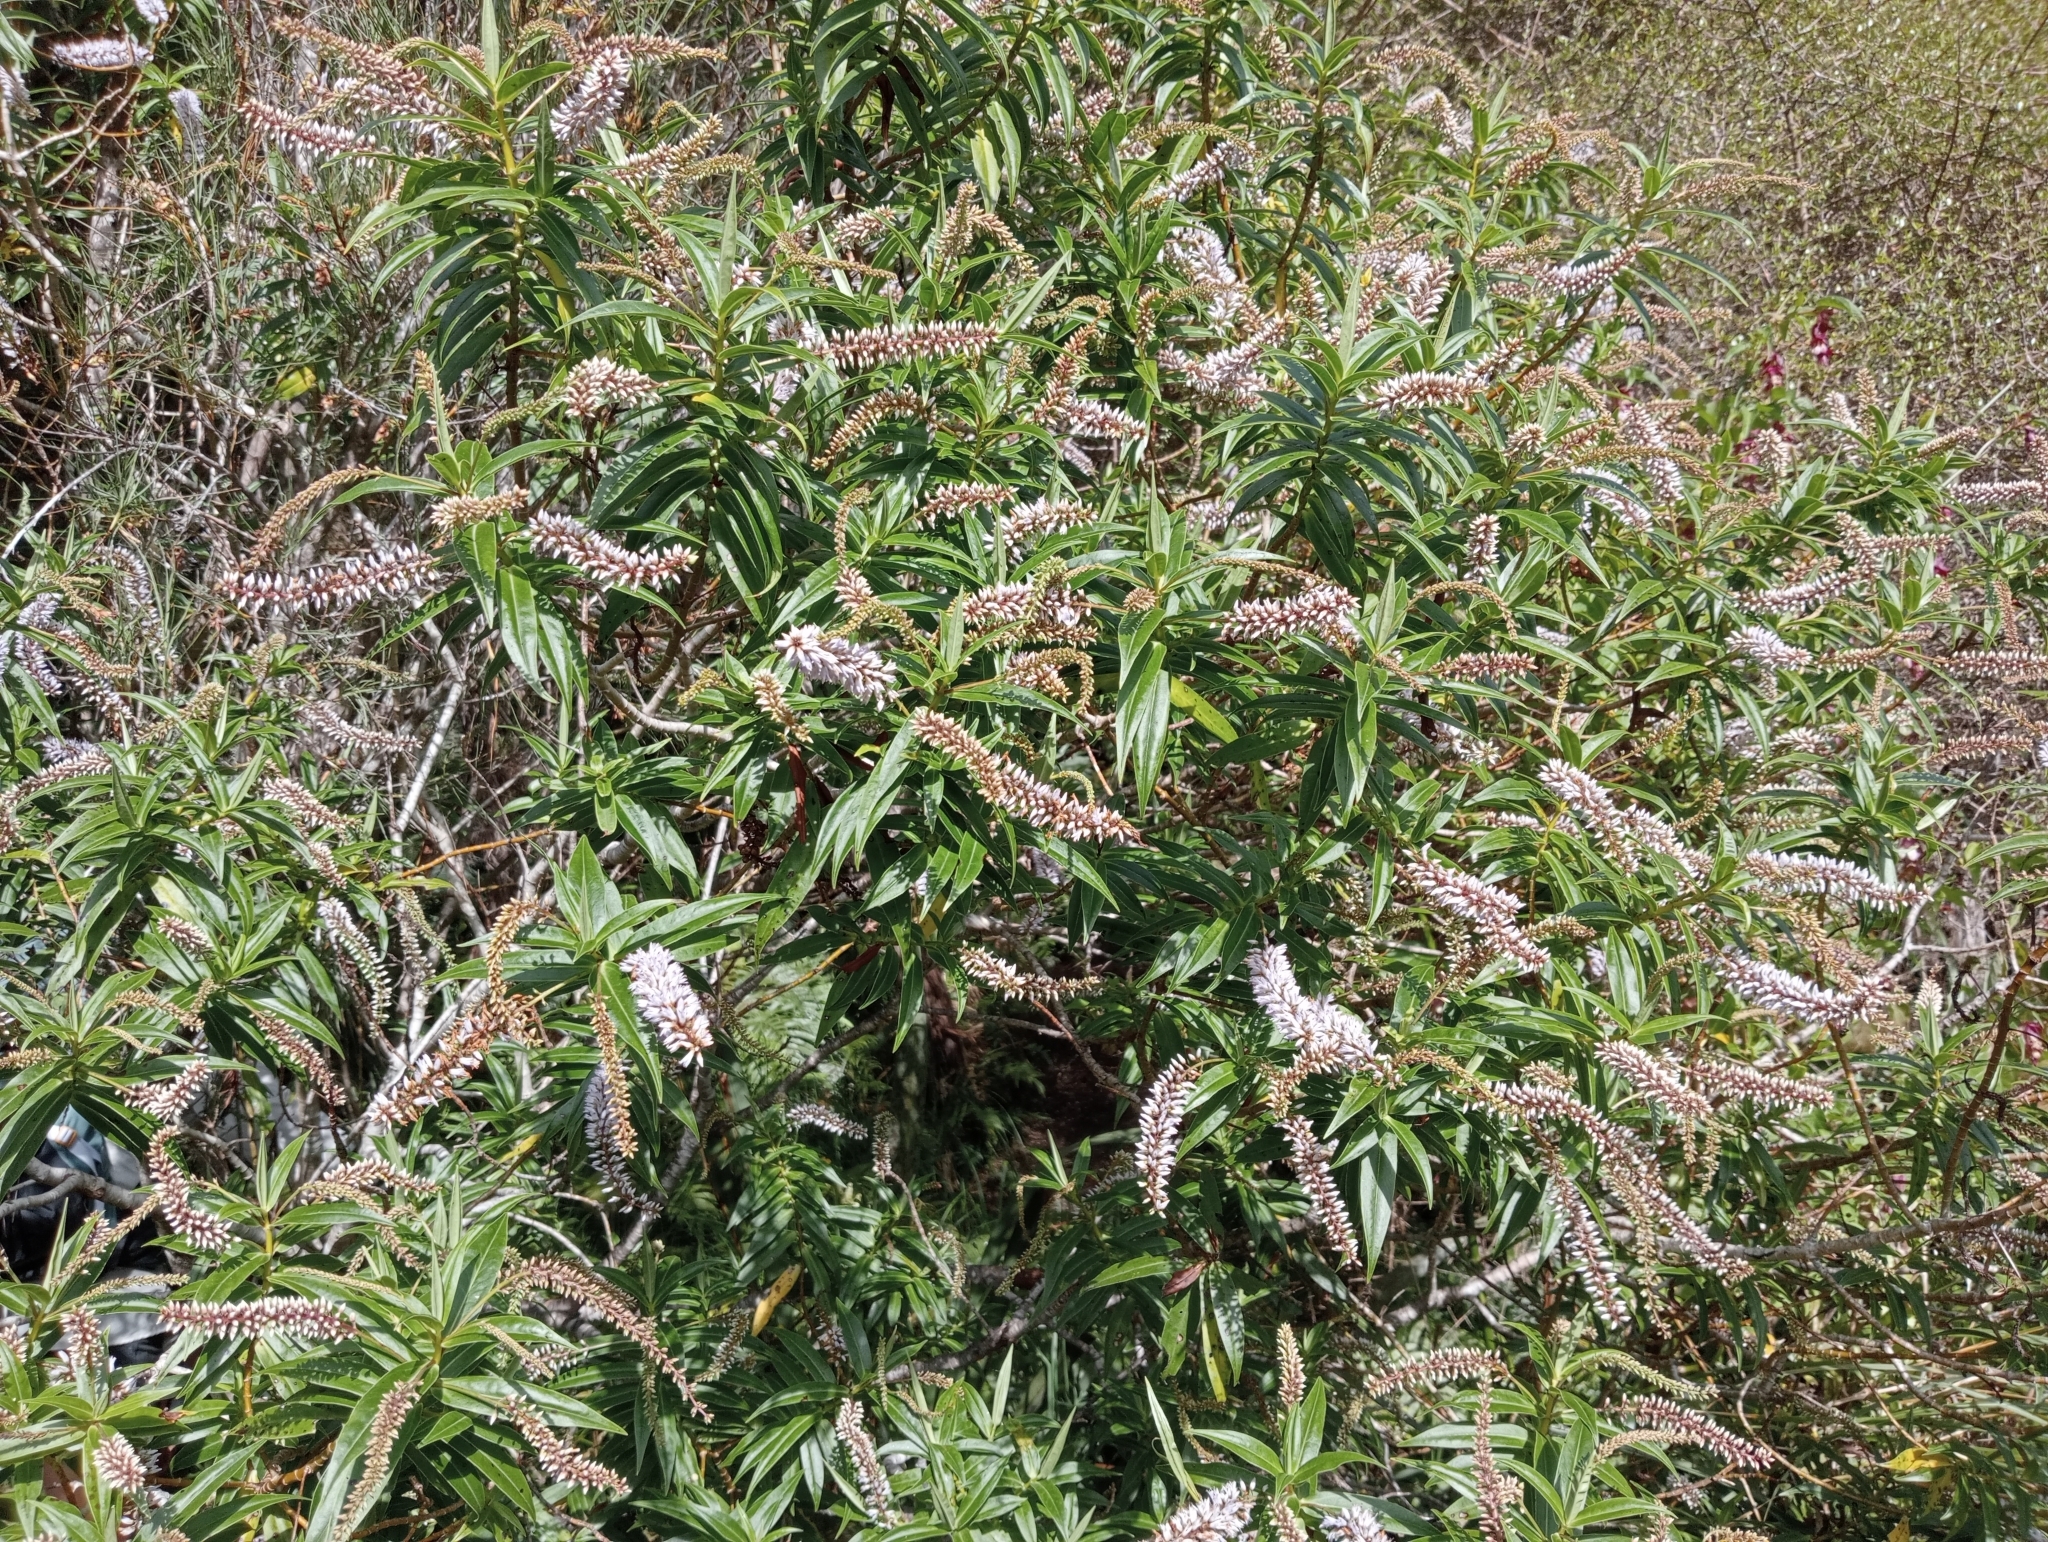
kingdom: Plantae
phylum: Tracheophyta
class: Magnoliopsida
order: Lamiales
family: Plantaginaceae
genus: Veronica
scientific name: Veronica salicifolia
